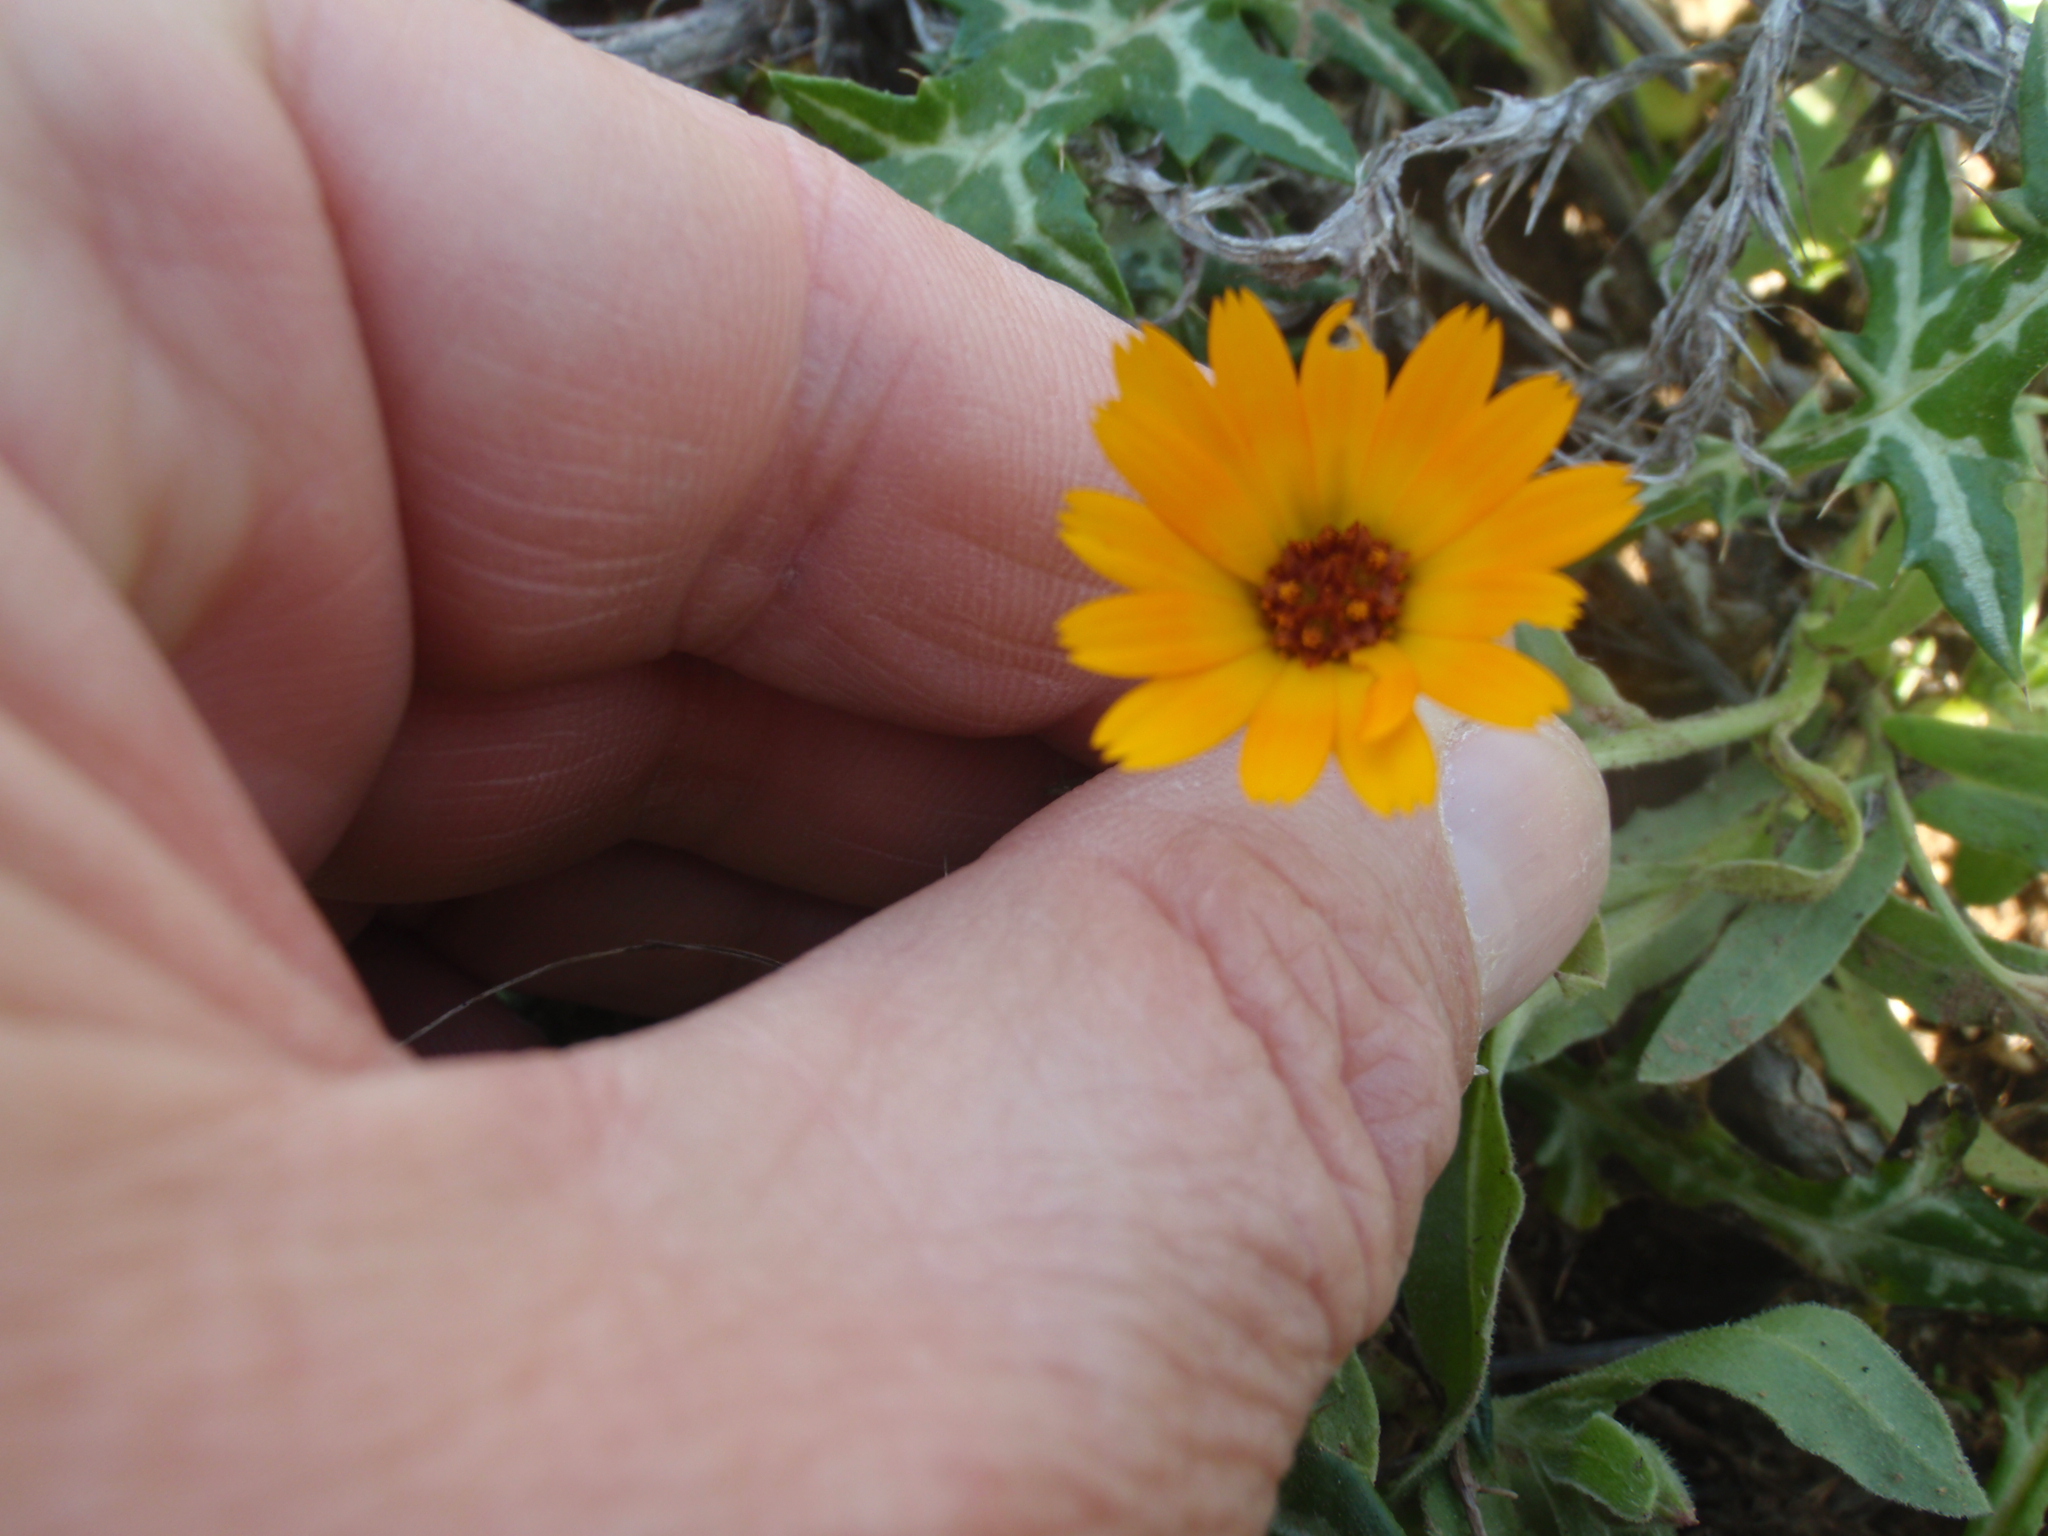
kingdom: Plantae
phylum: Tracheophyta
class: Magnoliopsida
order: Asterales
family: Asteraceae
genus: Calendula
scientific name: Calendula arvensis
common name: Field marigold
